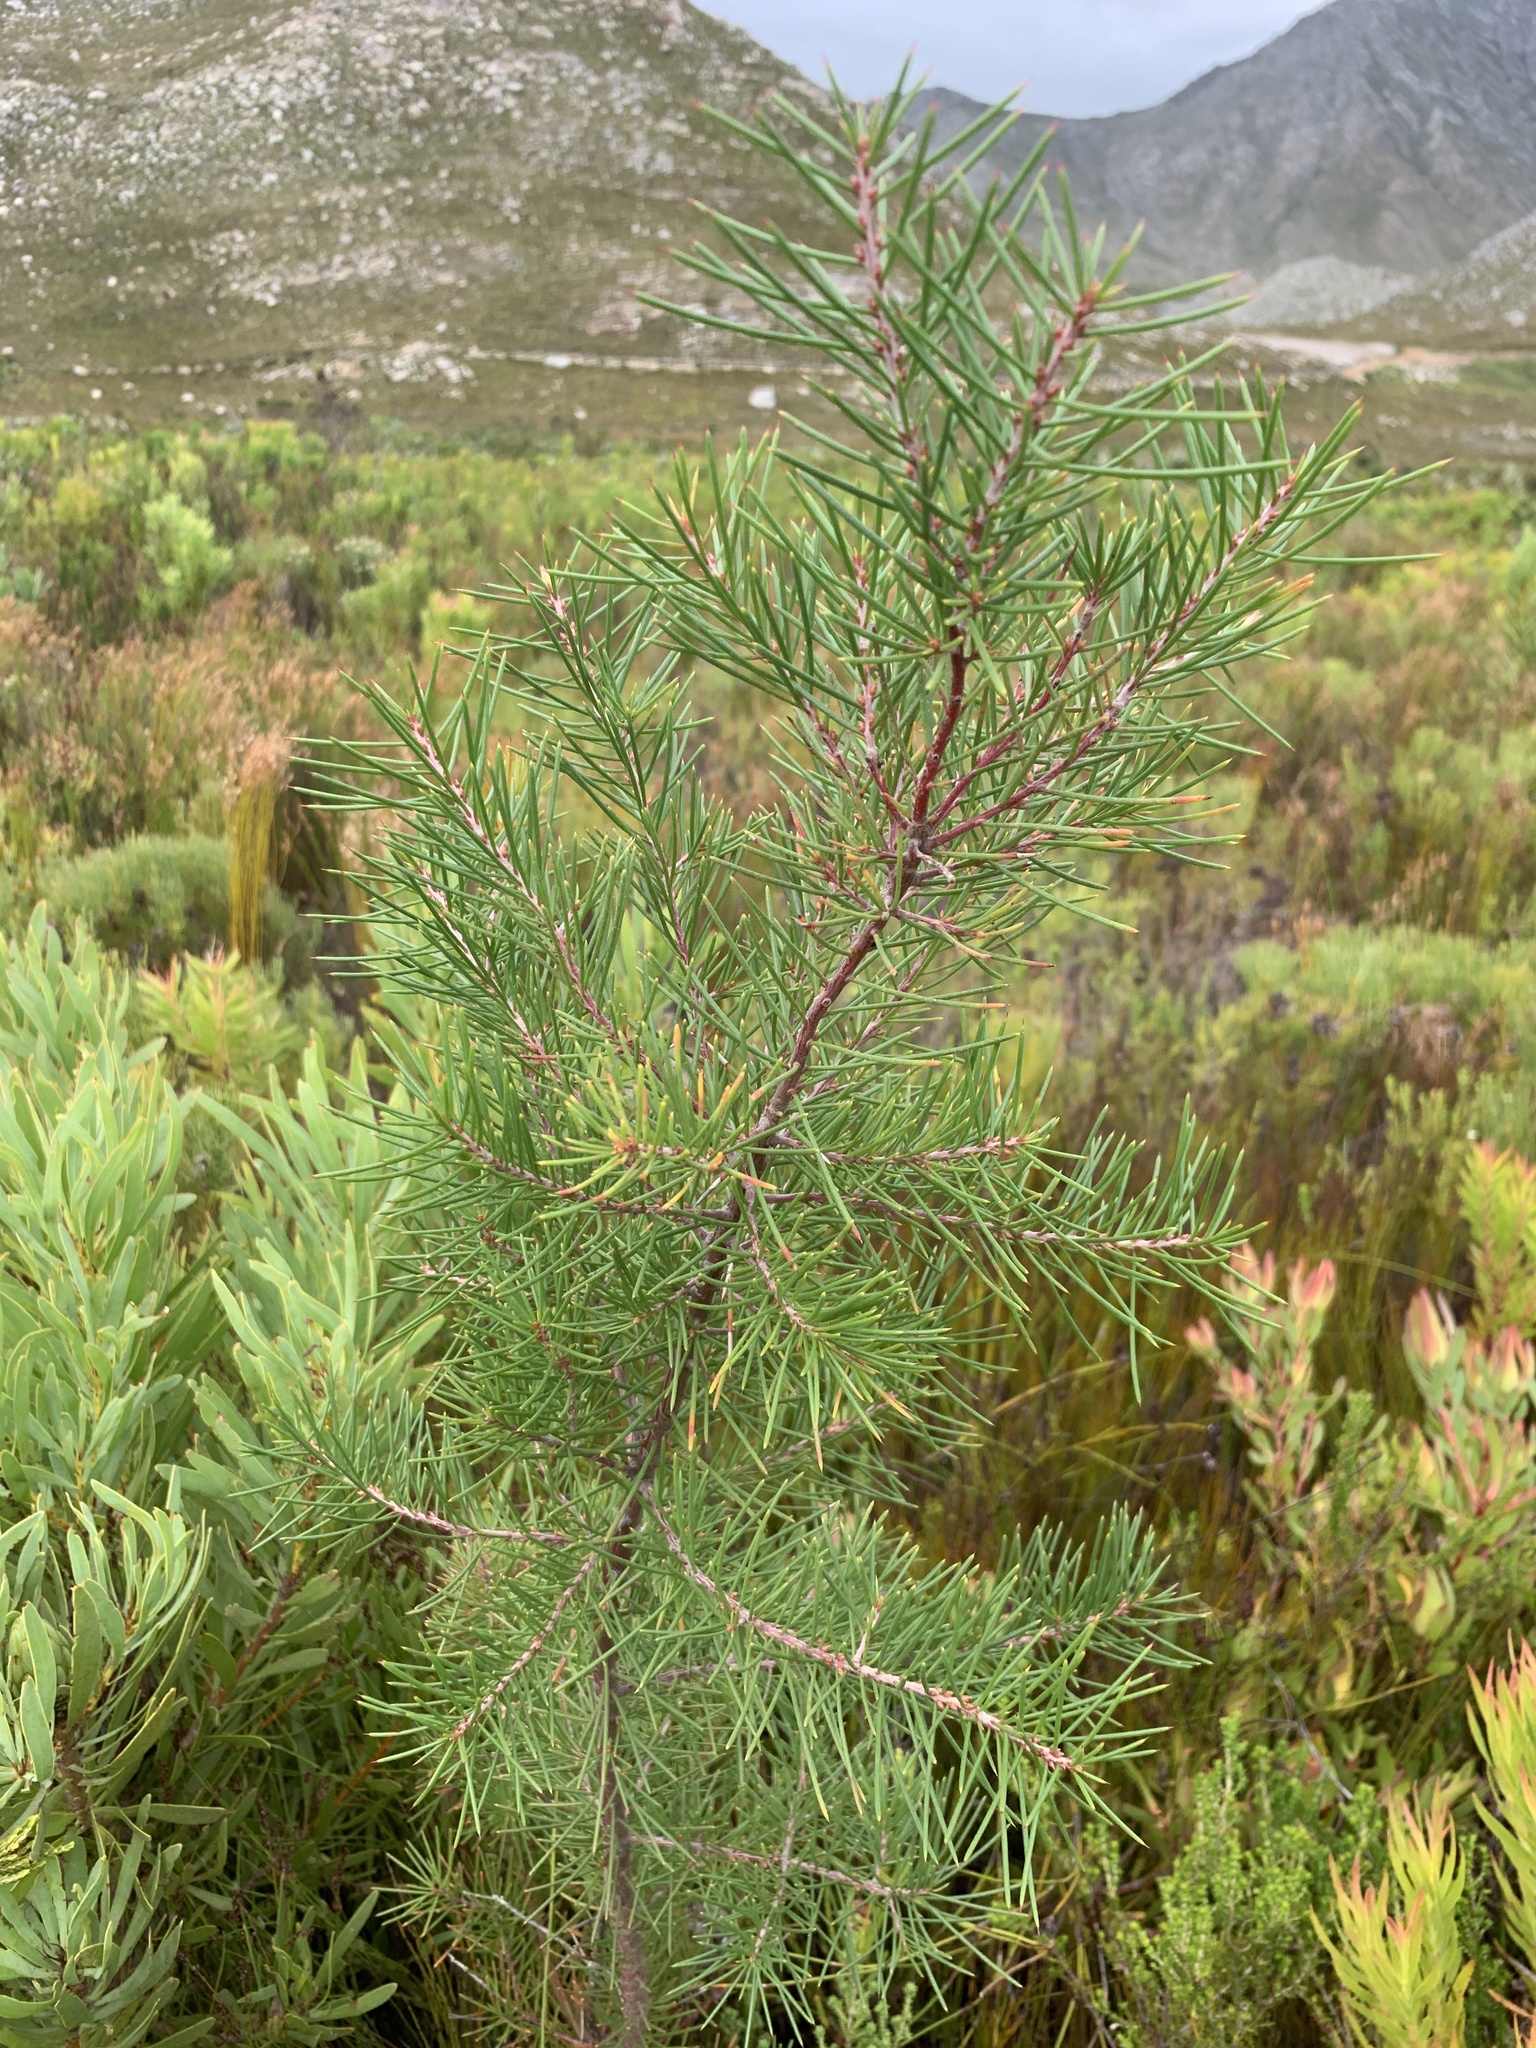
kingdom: Plantae
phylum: Tracheophyta
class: Magnoliopsida
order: Proteales
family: Proteaceae
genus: Hakea
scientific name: Hakea sericea
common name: Needle bush
